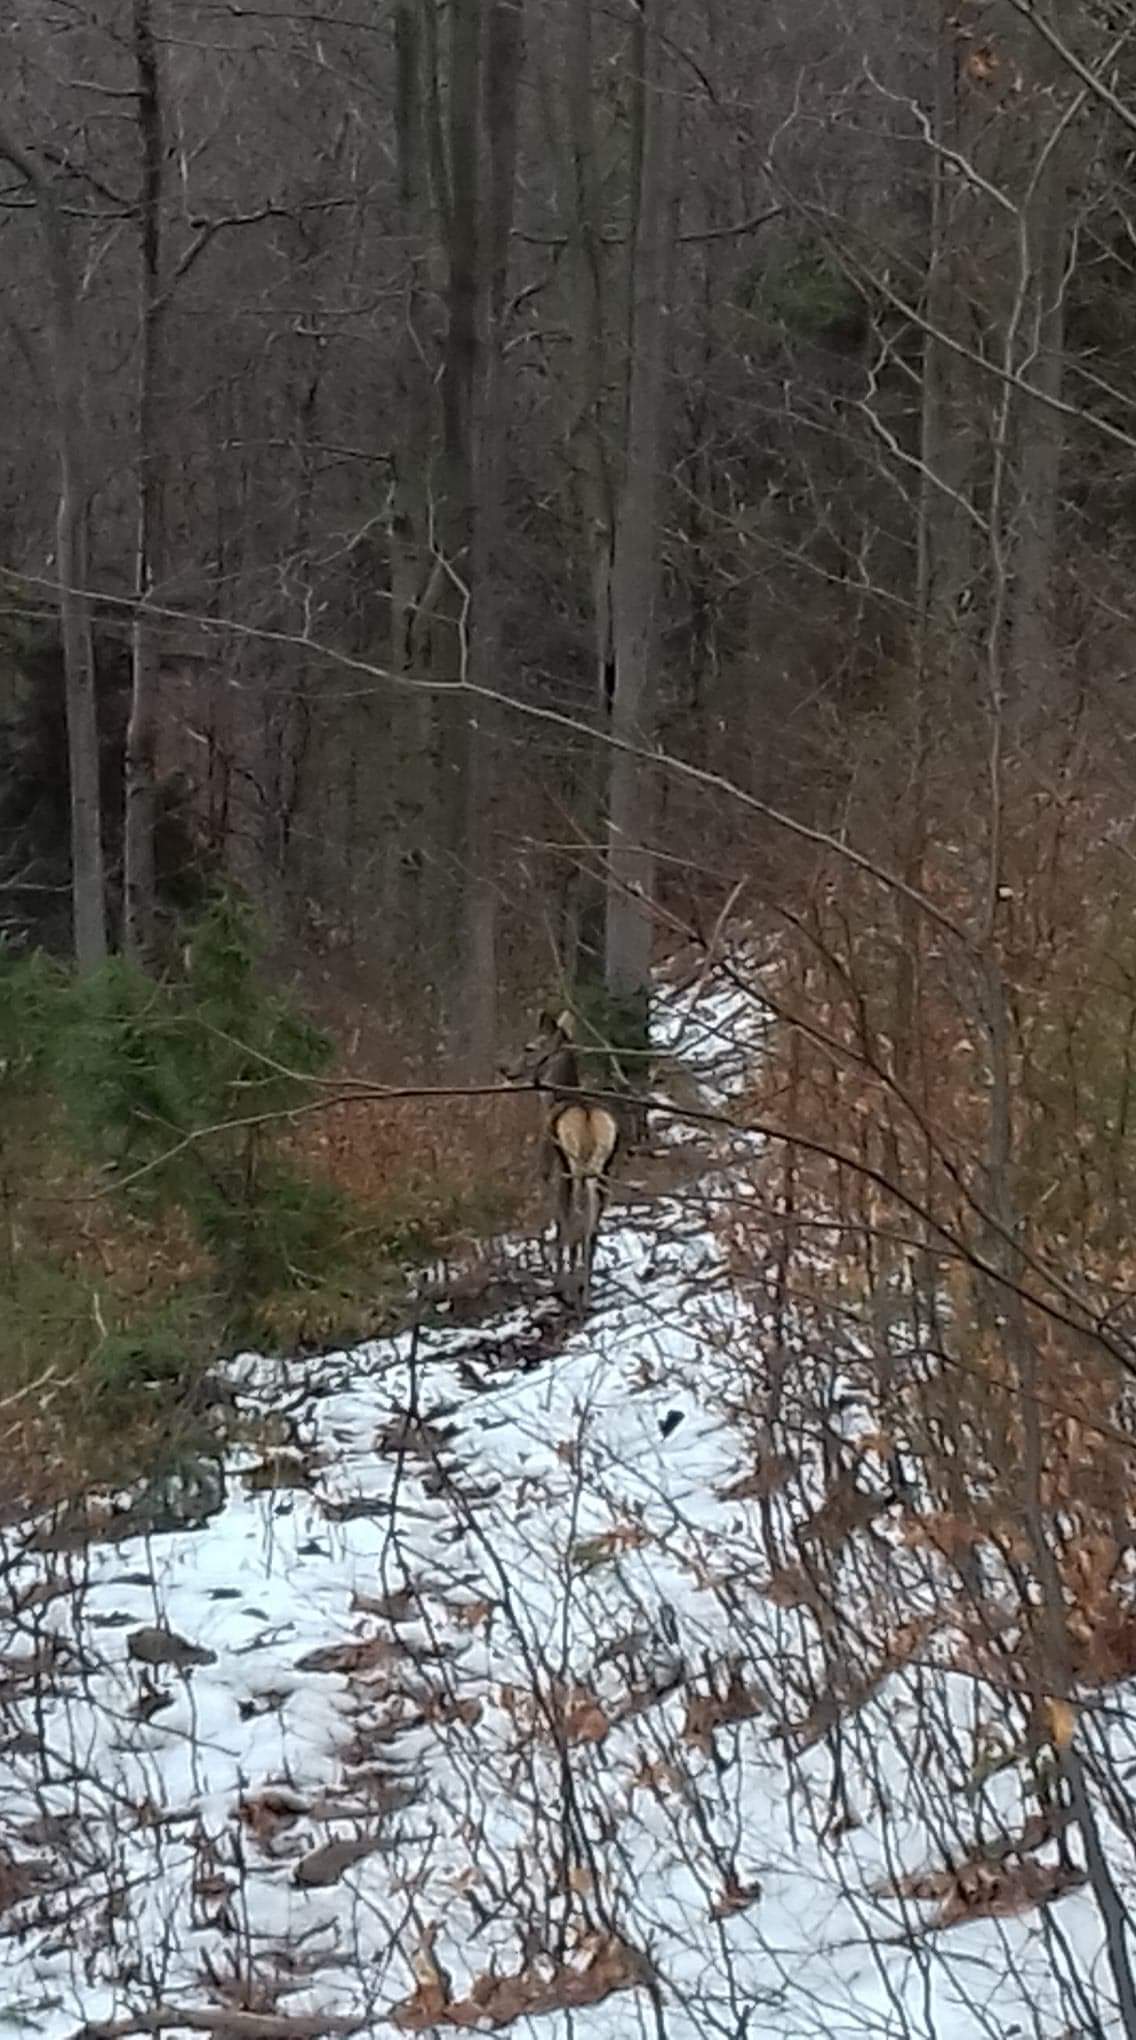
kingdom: Animalia
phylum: Chordata
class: Mammalia
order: Artiodactyla
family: Cervidae
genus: Cervus
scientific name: Cervus elaphus
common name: Red deer
